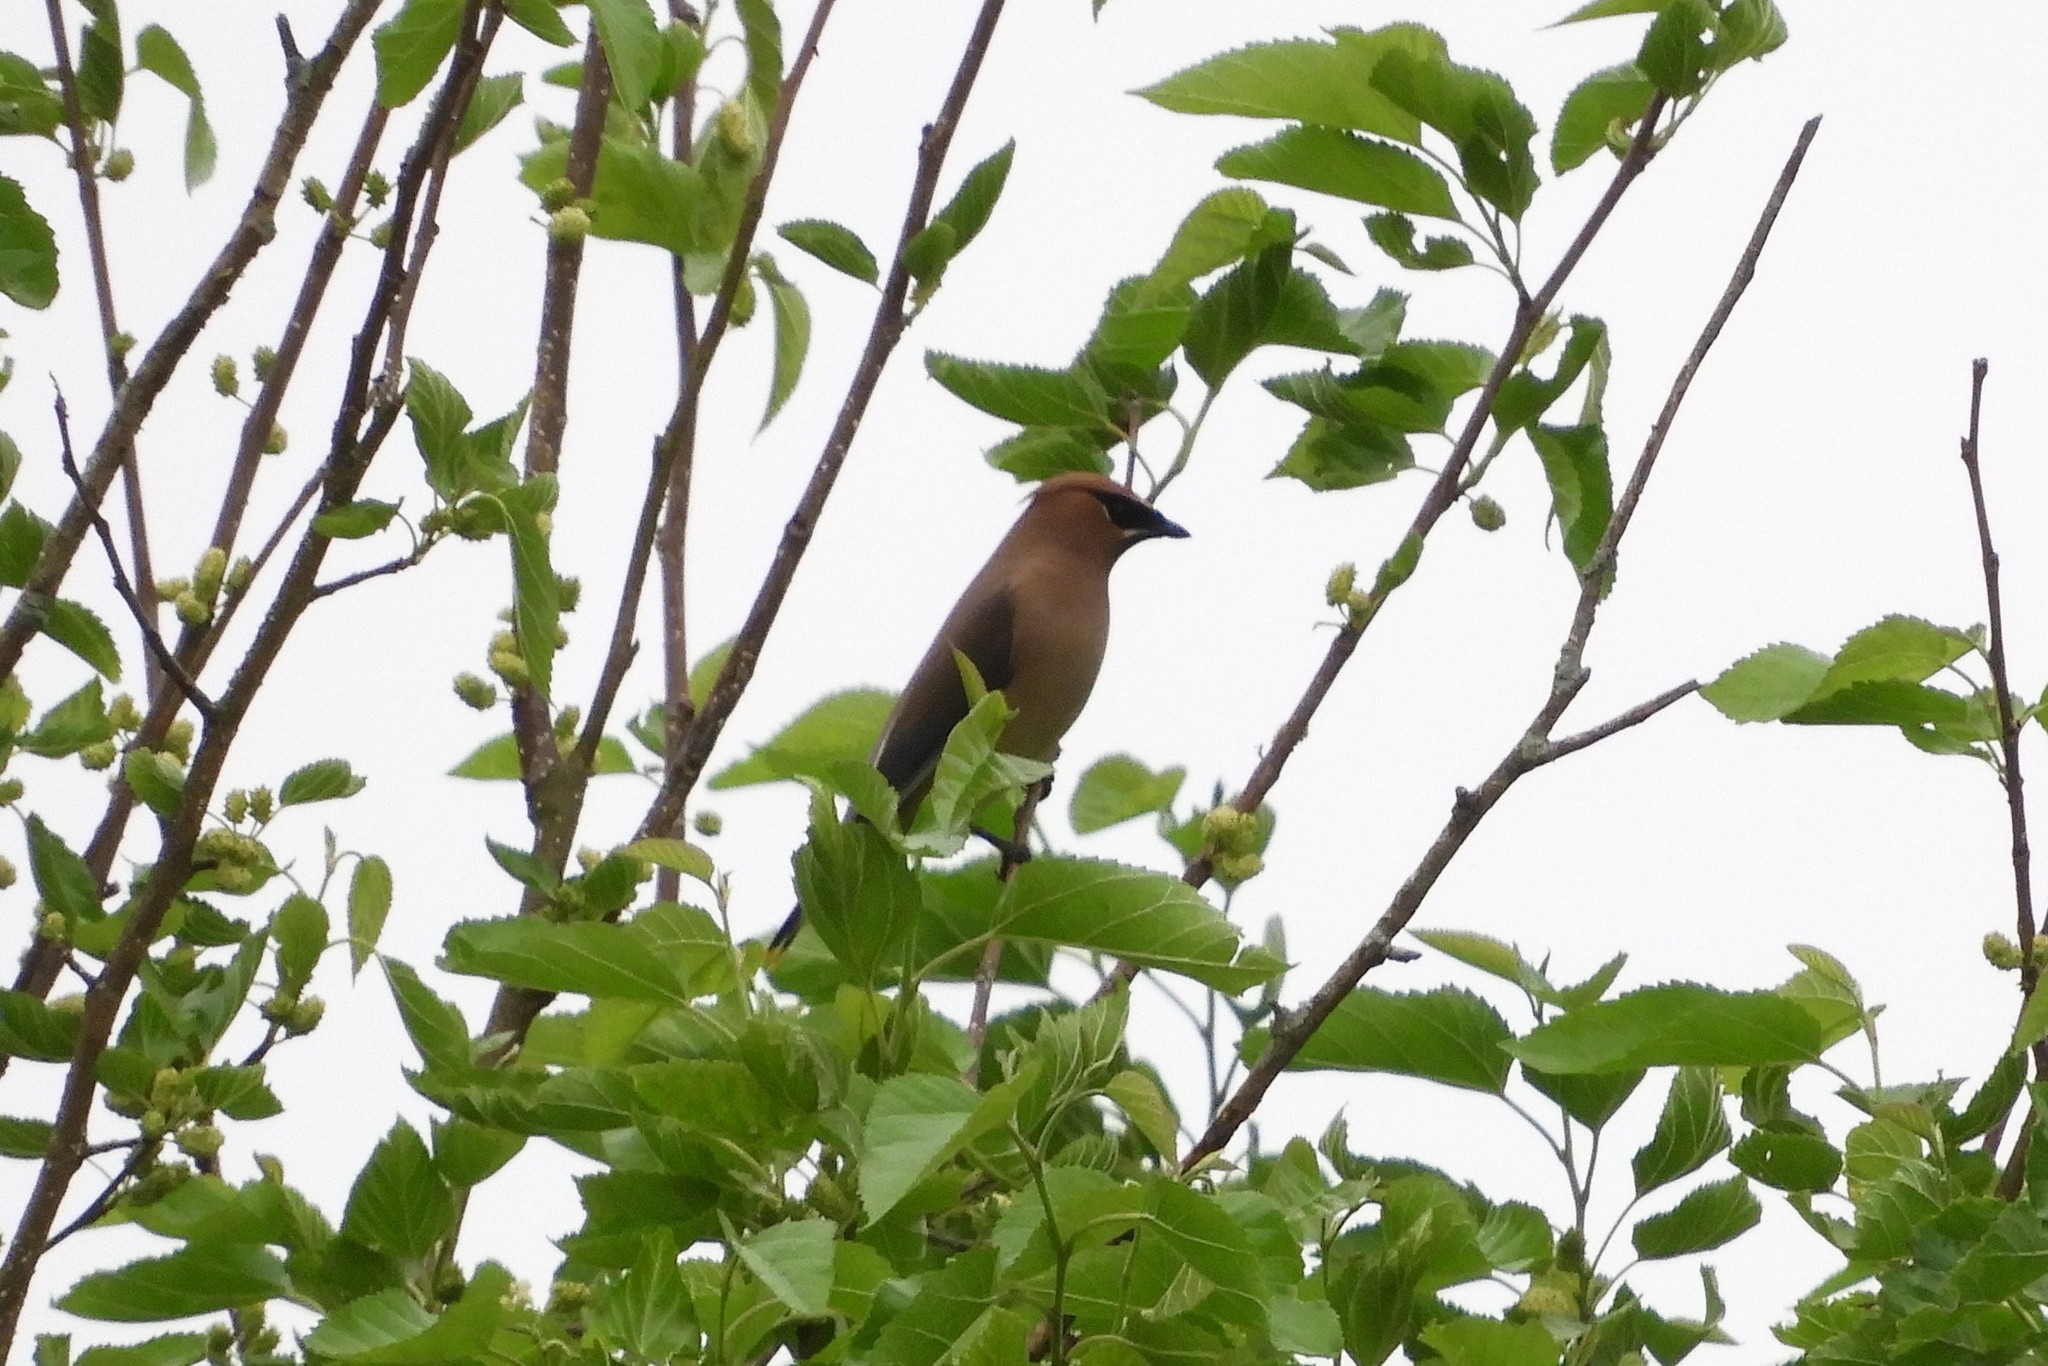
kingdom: Animalia
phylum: Chordata
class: Aves
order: Passeriformes
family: Bombycillidae
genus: Bombycilla
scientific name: Bombycilla cedrorum
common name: Cedar waxwing
